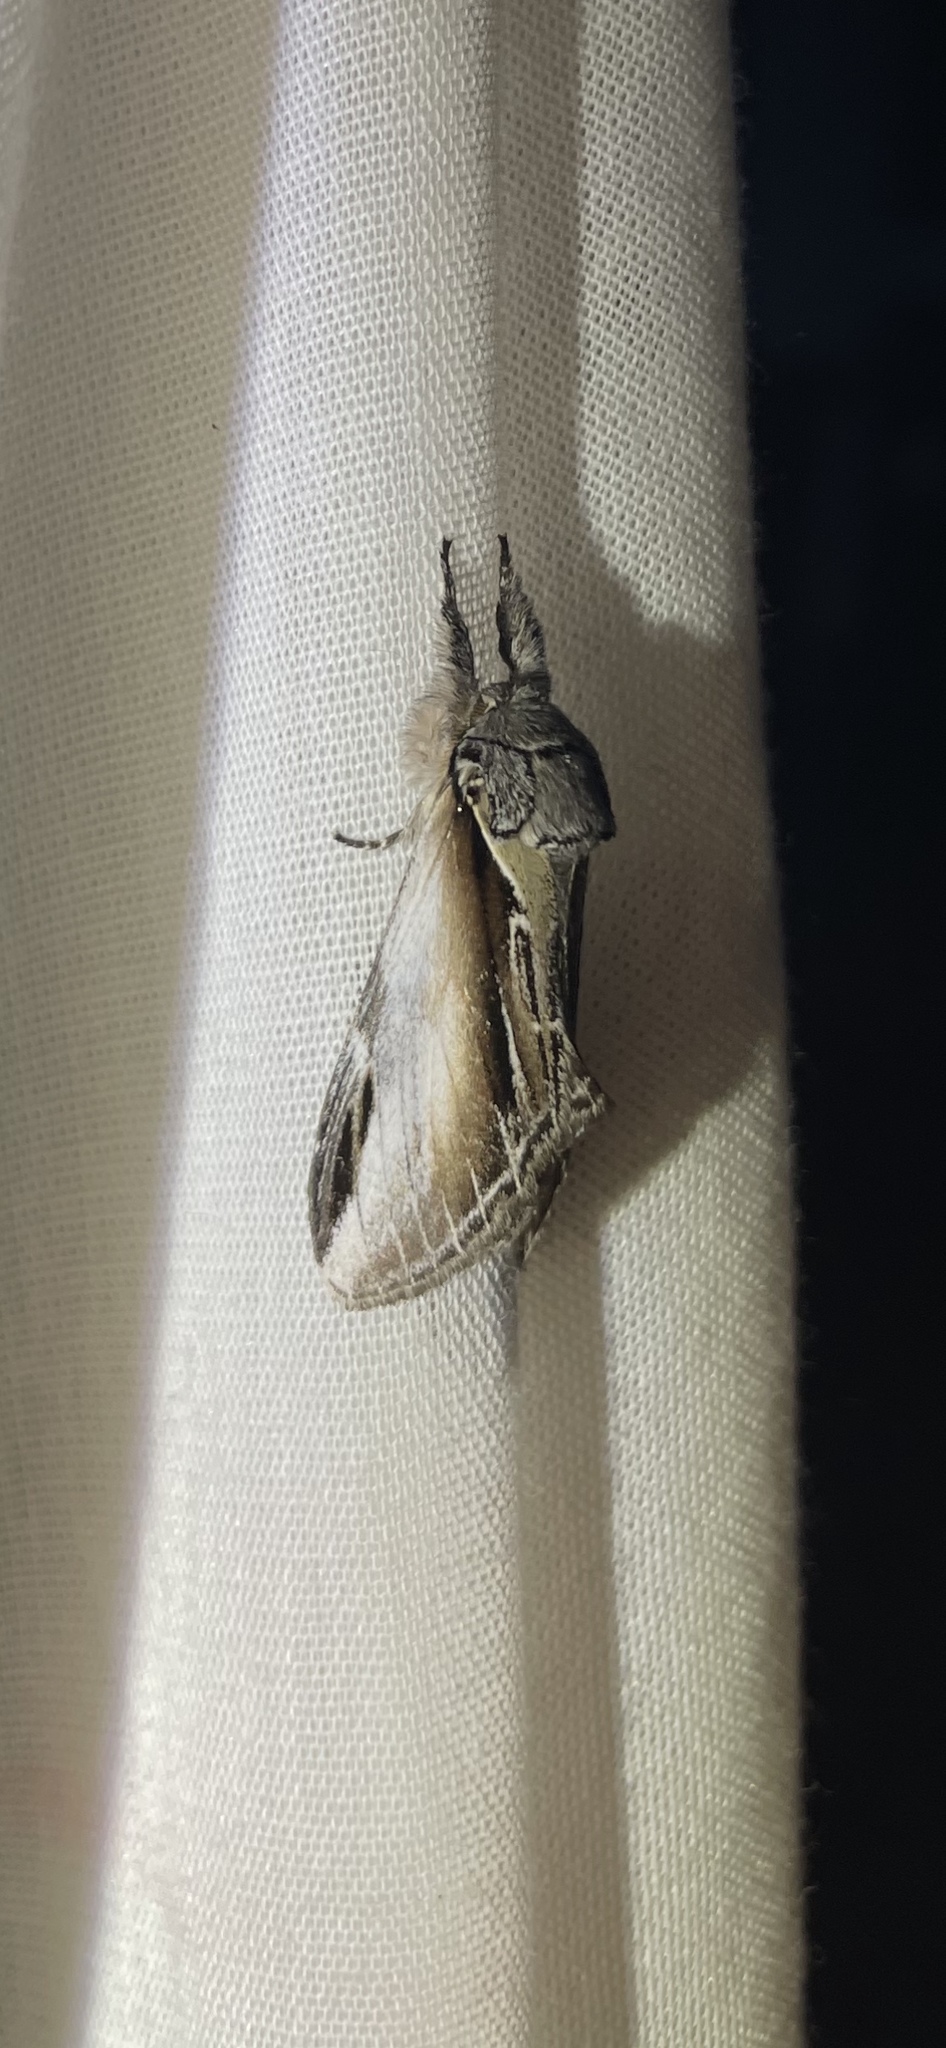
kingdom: Animalia
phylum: Arthropoda
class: Insecta
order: Lepidoptera
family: Notodontidae
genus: Pheosia
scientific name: Pheosia rimosa
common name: Black-rimmed prominent
